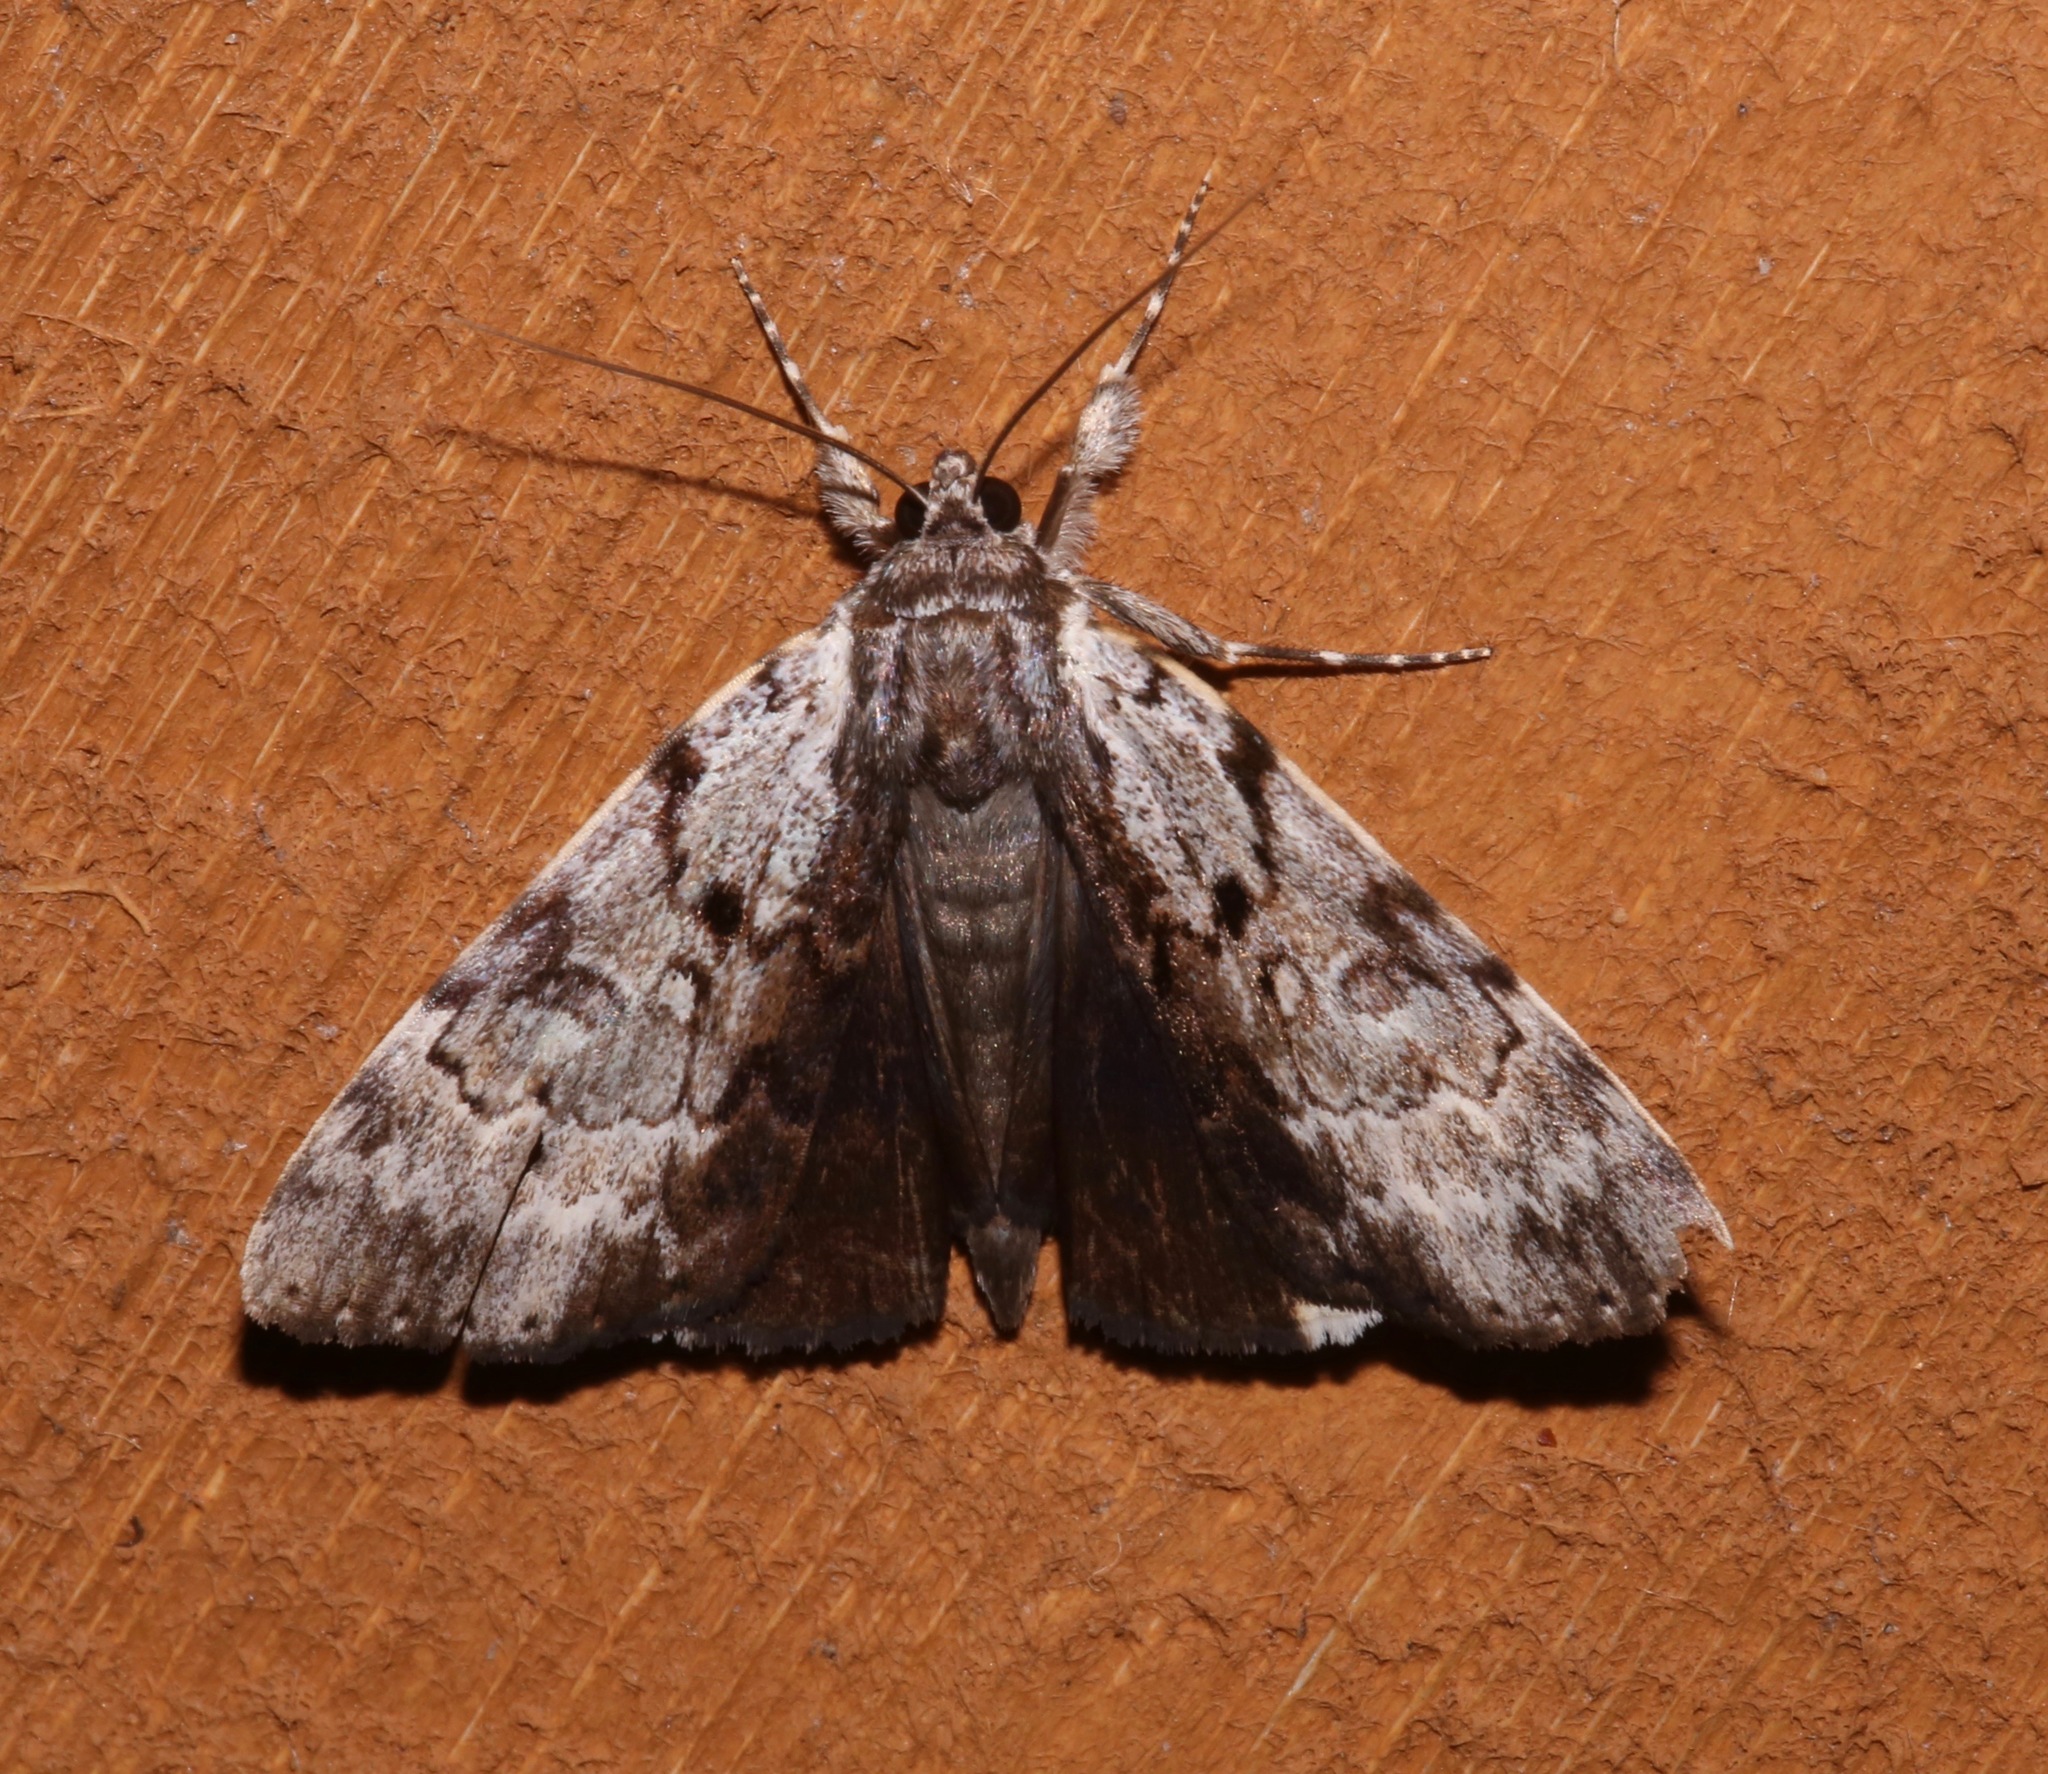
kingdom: Animalia
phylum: Arthropoda
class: Insecta
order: Lepidoptera
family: Erebidae
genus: Catocala
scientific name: Catocala andromedae
